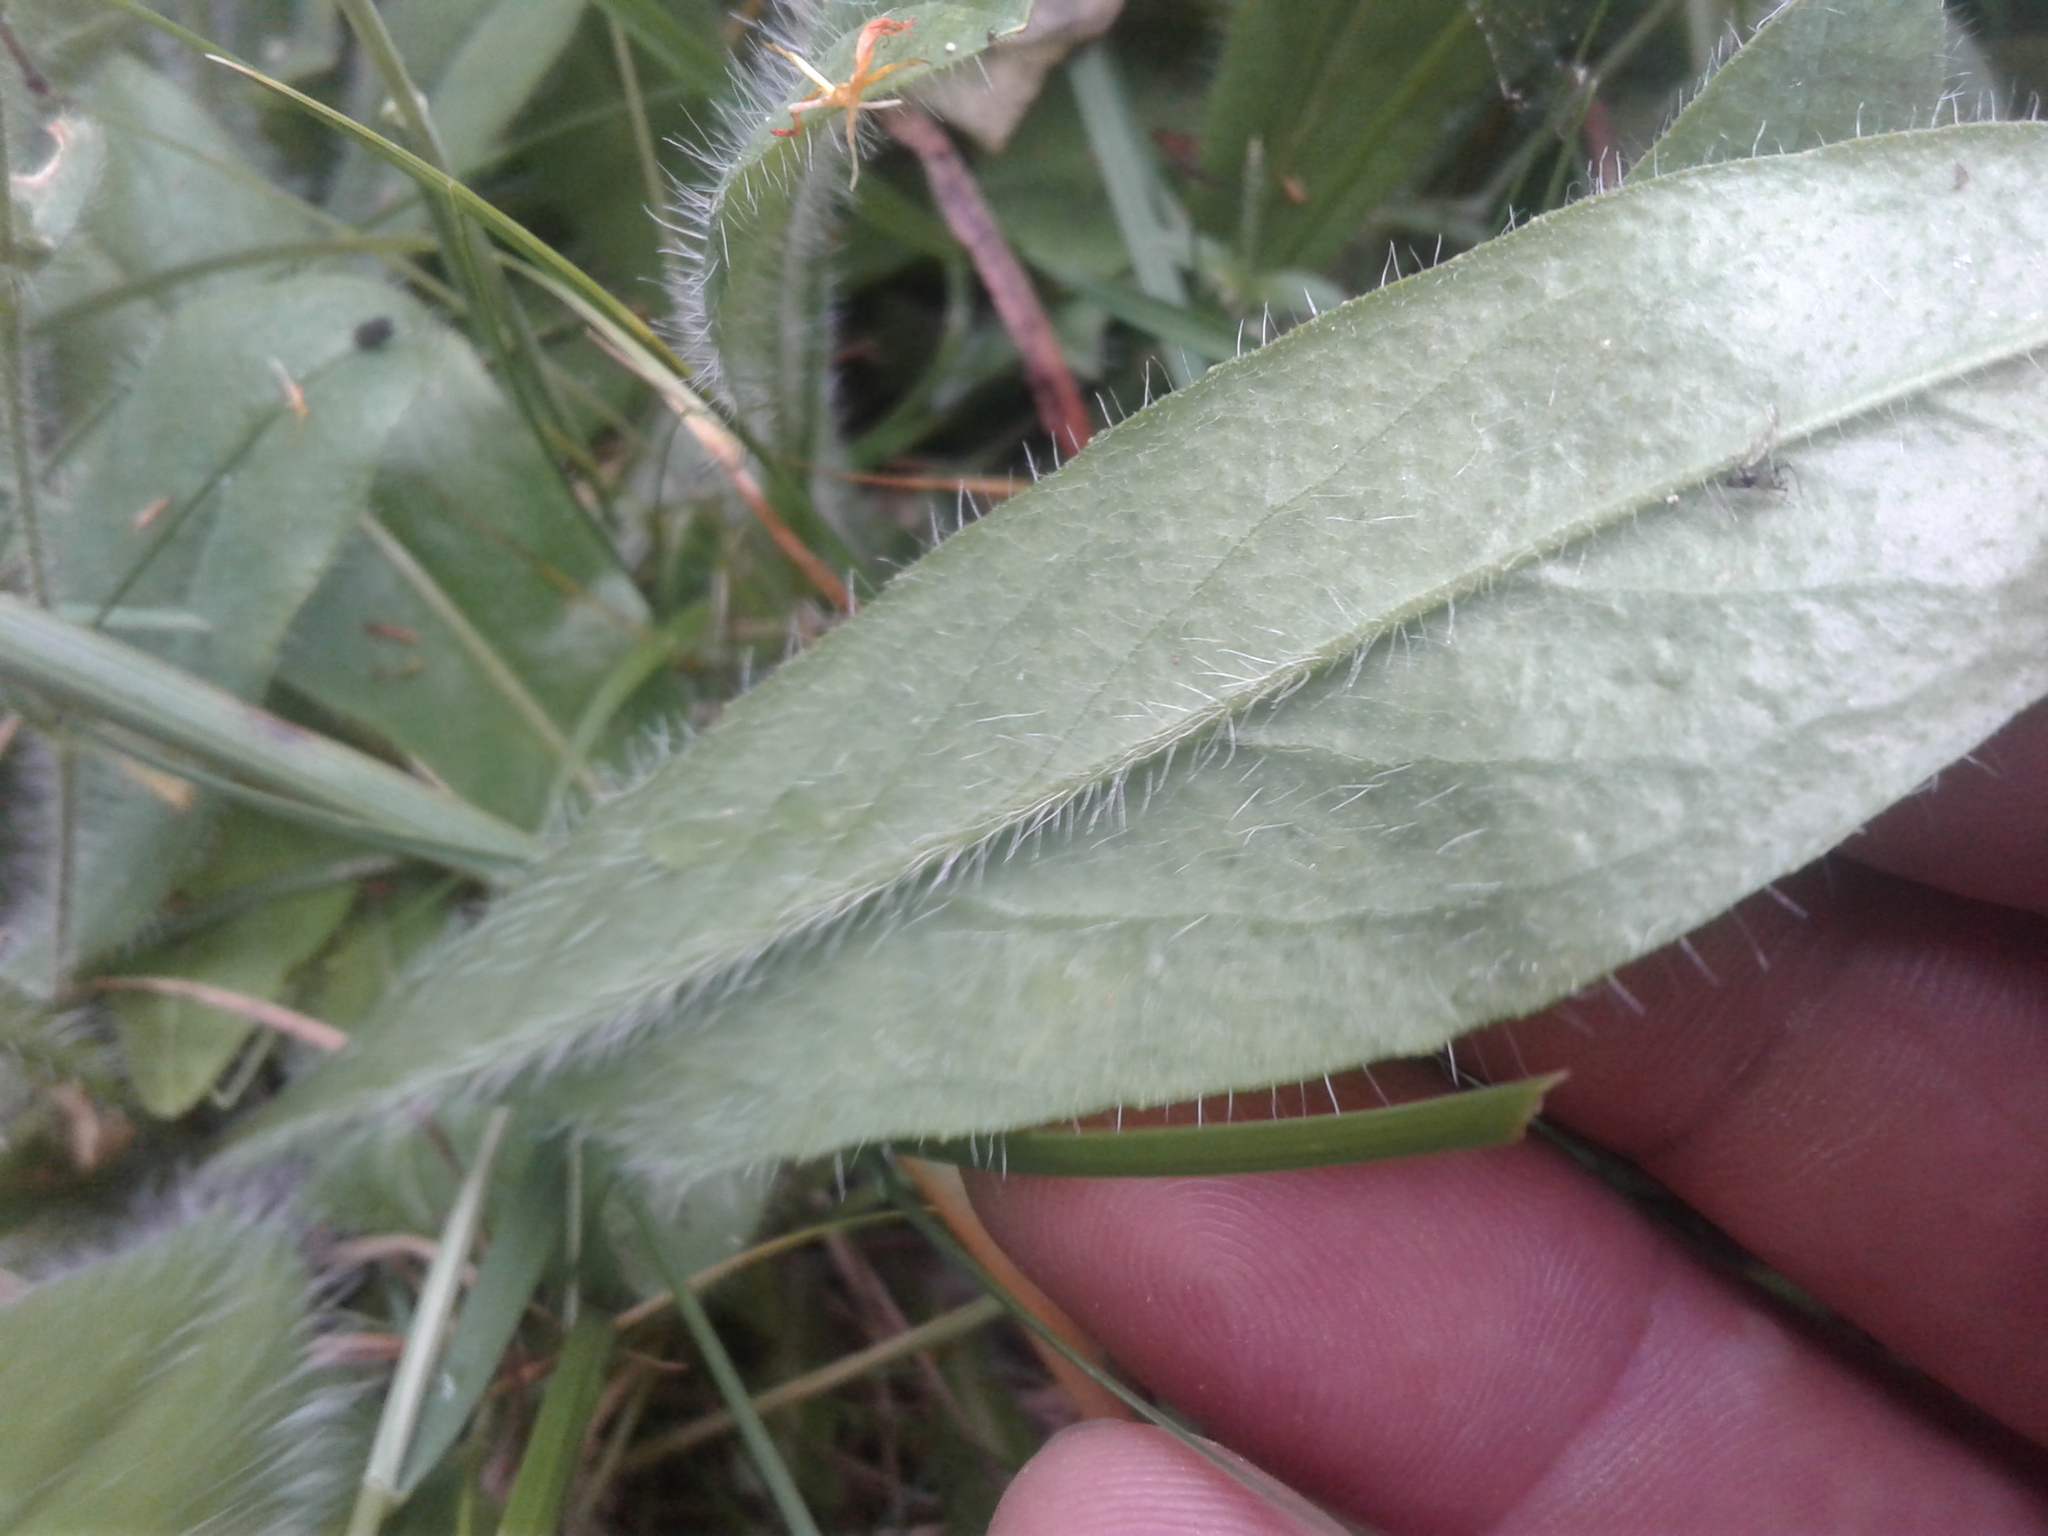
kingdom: Plantae
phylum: Tracheophyta
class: Magnoliopsida
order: Asterales
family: Asteraceae
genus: Pilosella
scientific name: Pilosella aurantiaca
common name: Fox-and-cubs
